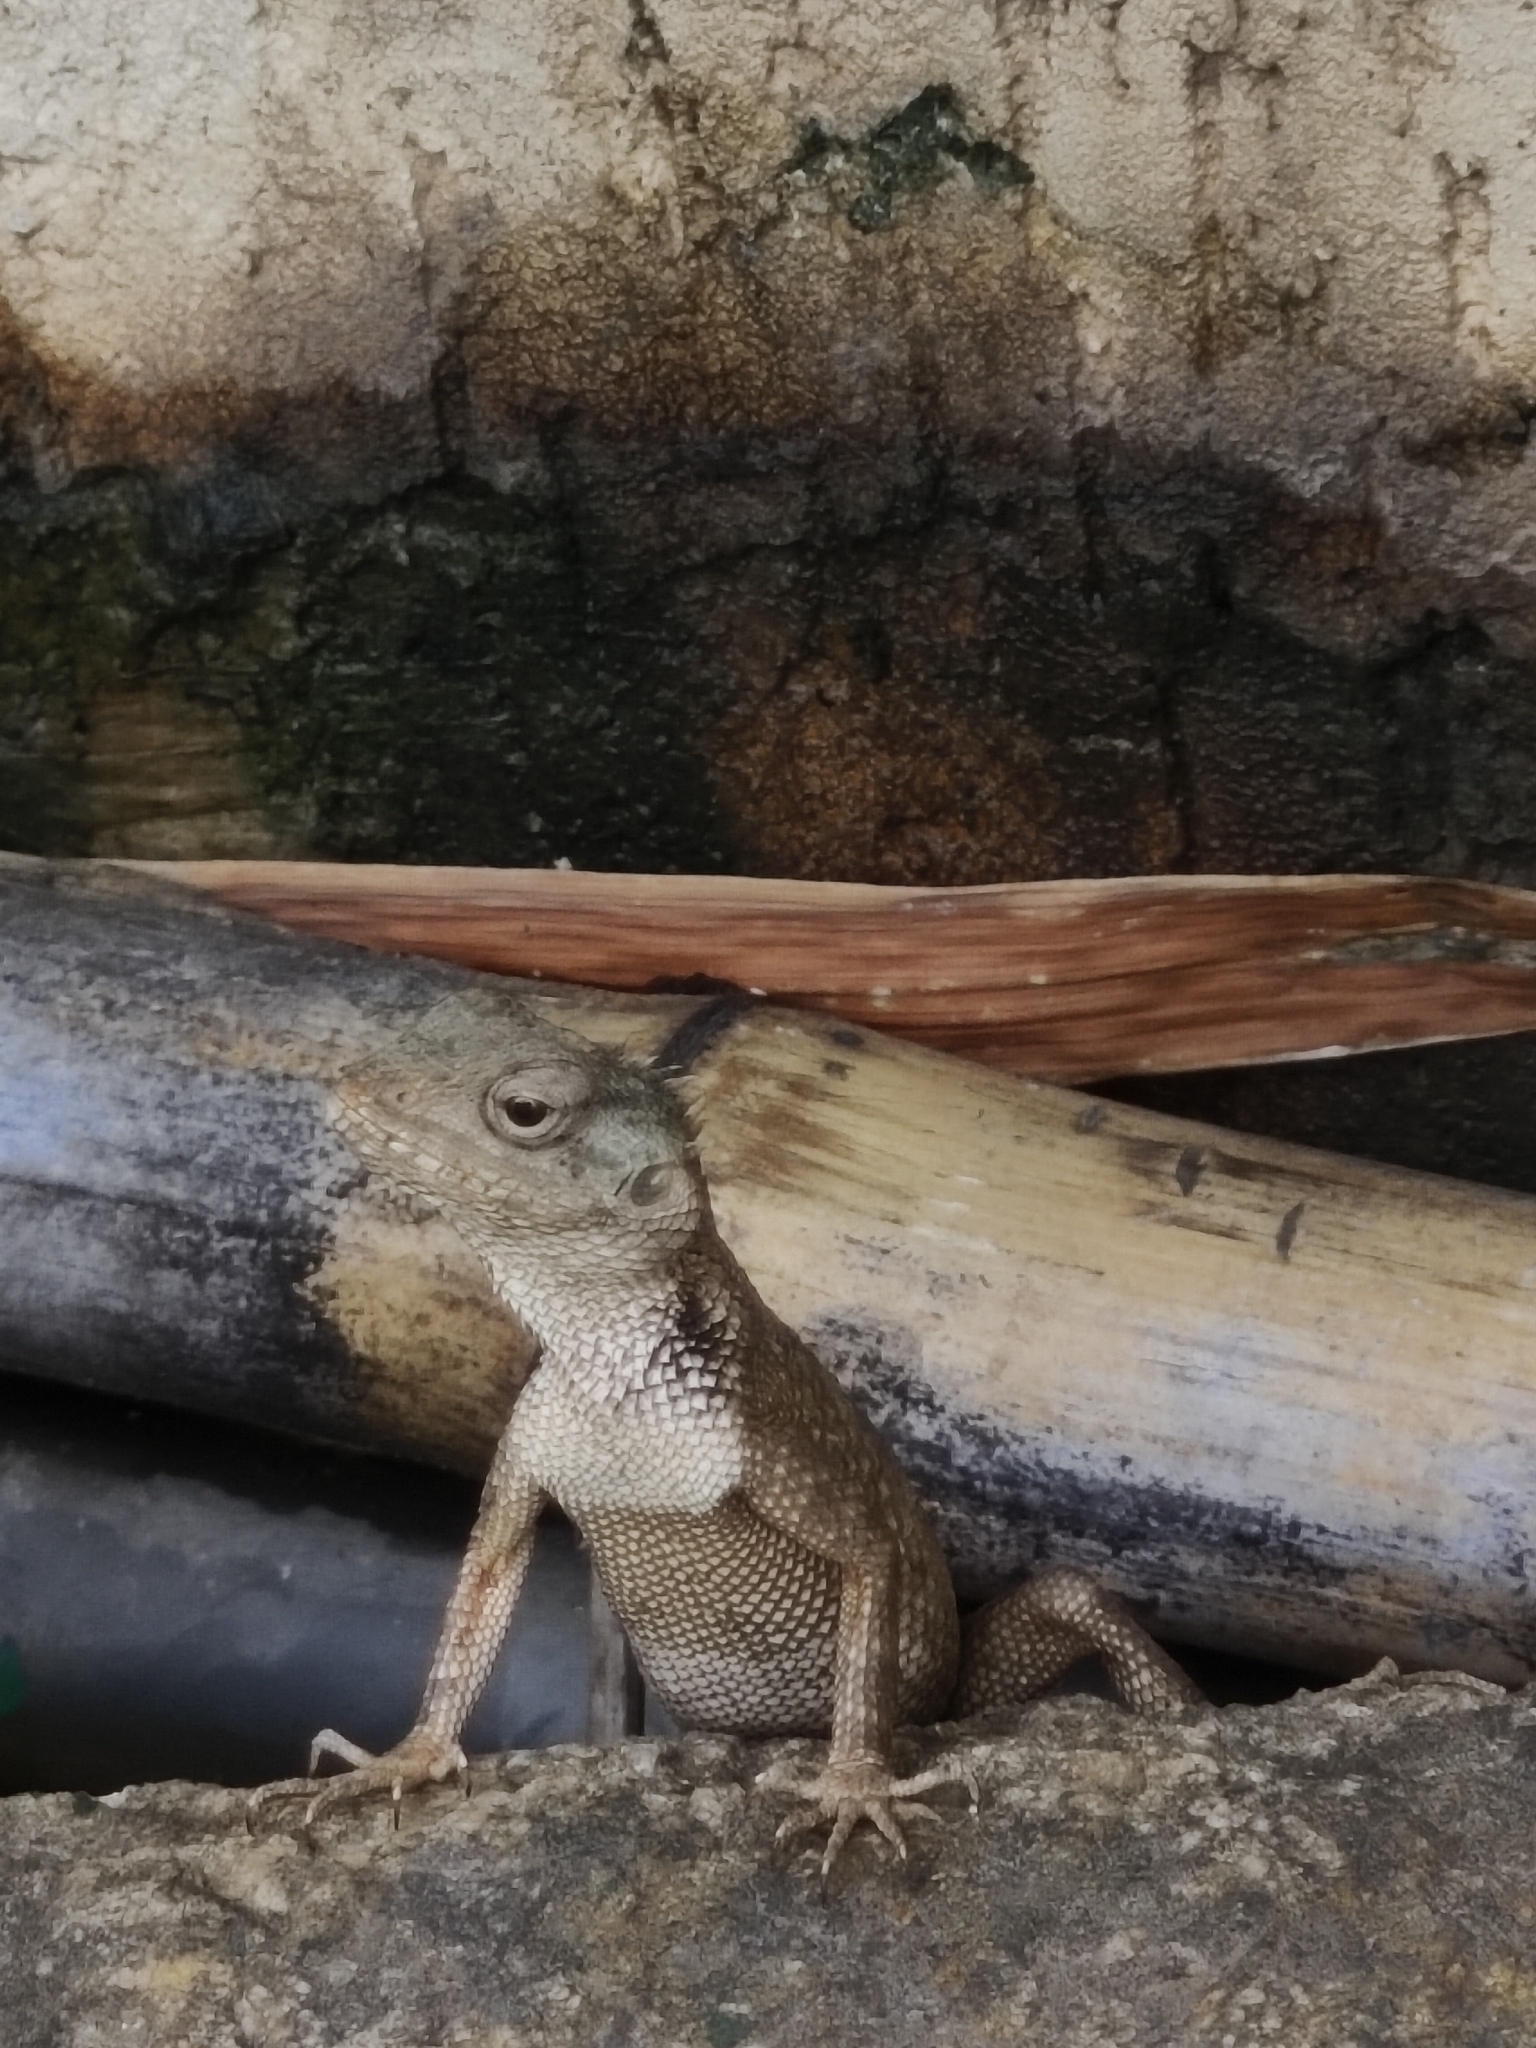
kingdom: Animalia
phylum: Chordata
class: Squamata
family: Agamidae
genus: Calotes
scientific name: Calotes versicolor
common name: Oriental garden lizard
